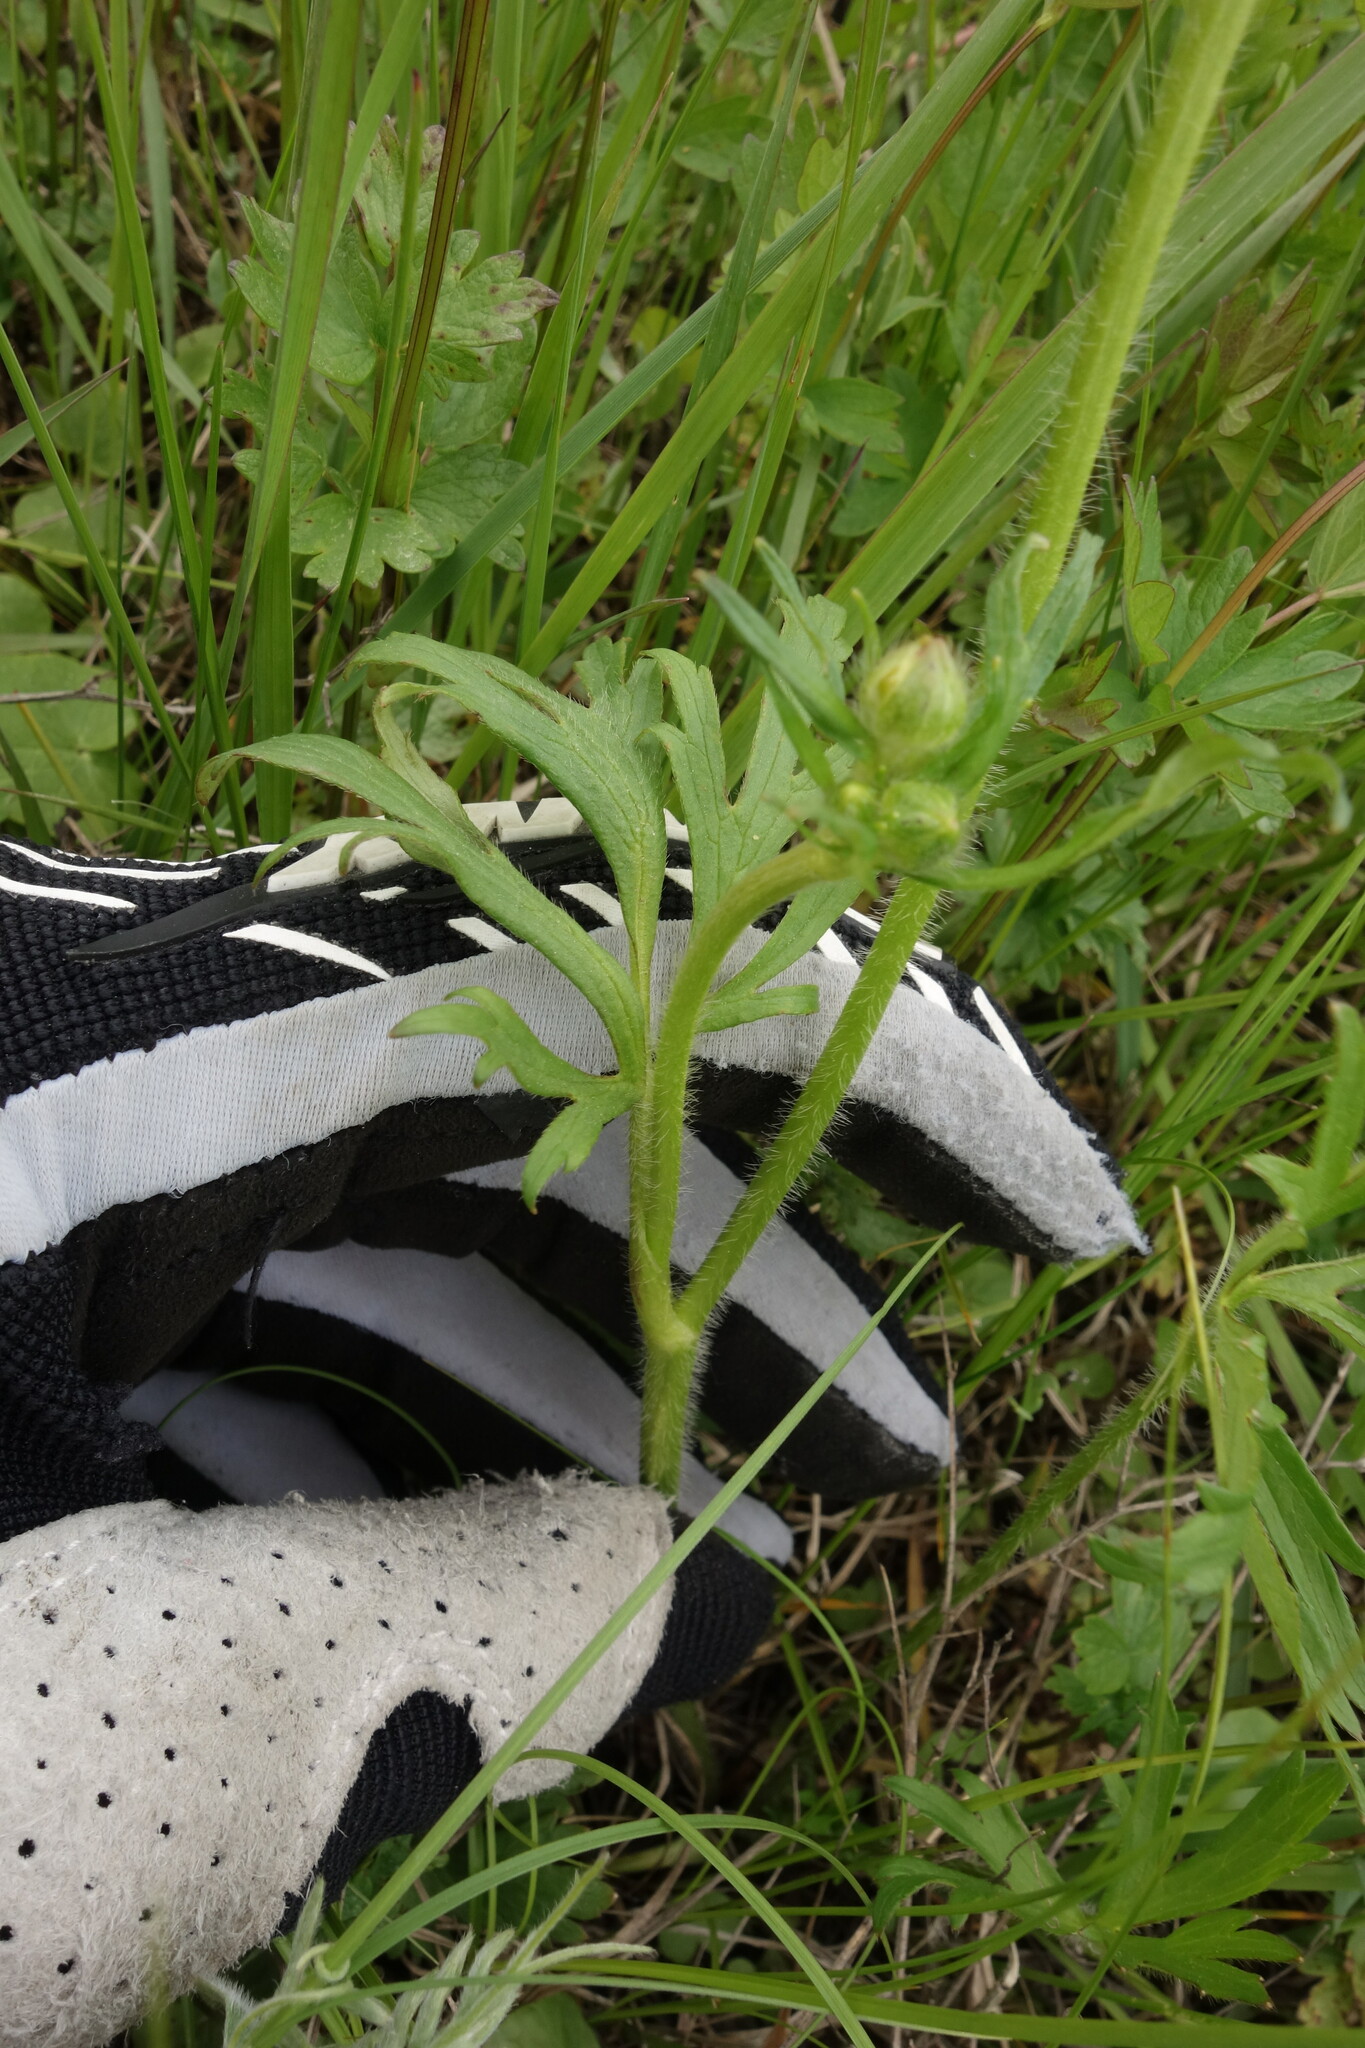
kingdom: Plantae
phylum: Tracheophyta
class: Magnoliopsida
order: Ranunculales
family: Ranunculaceae
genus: Ranunculus
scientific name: Ranunculus polyanthemos
